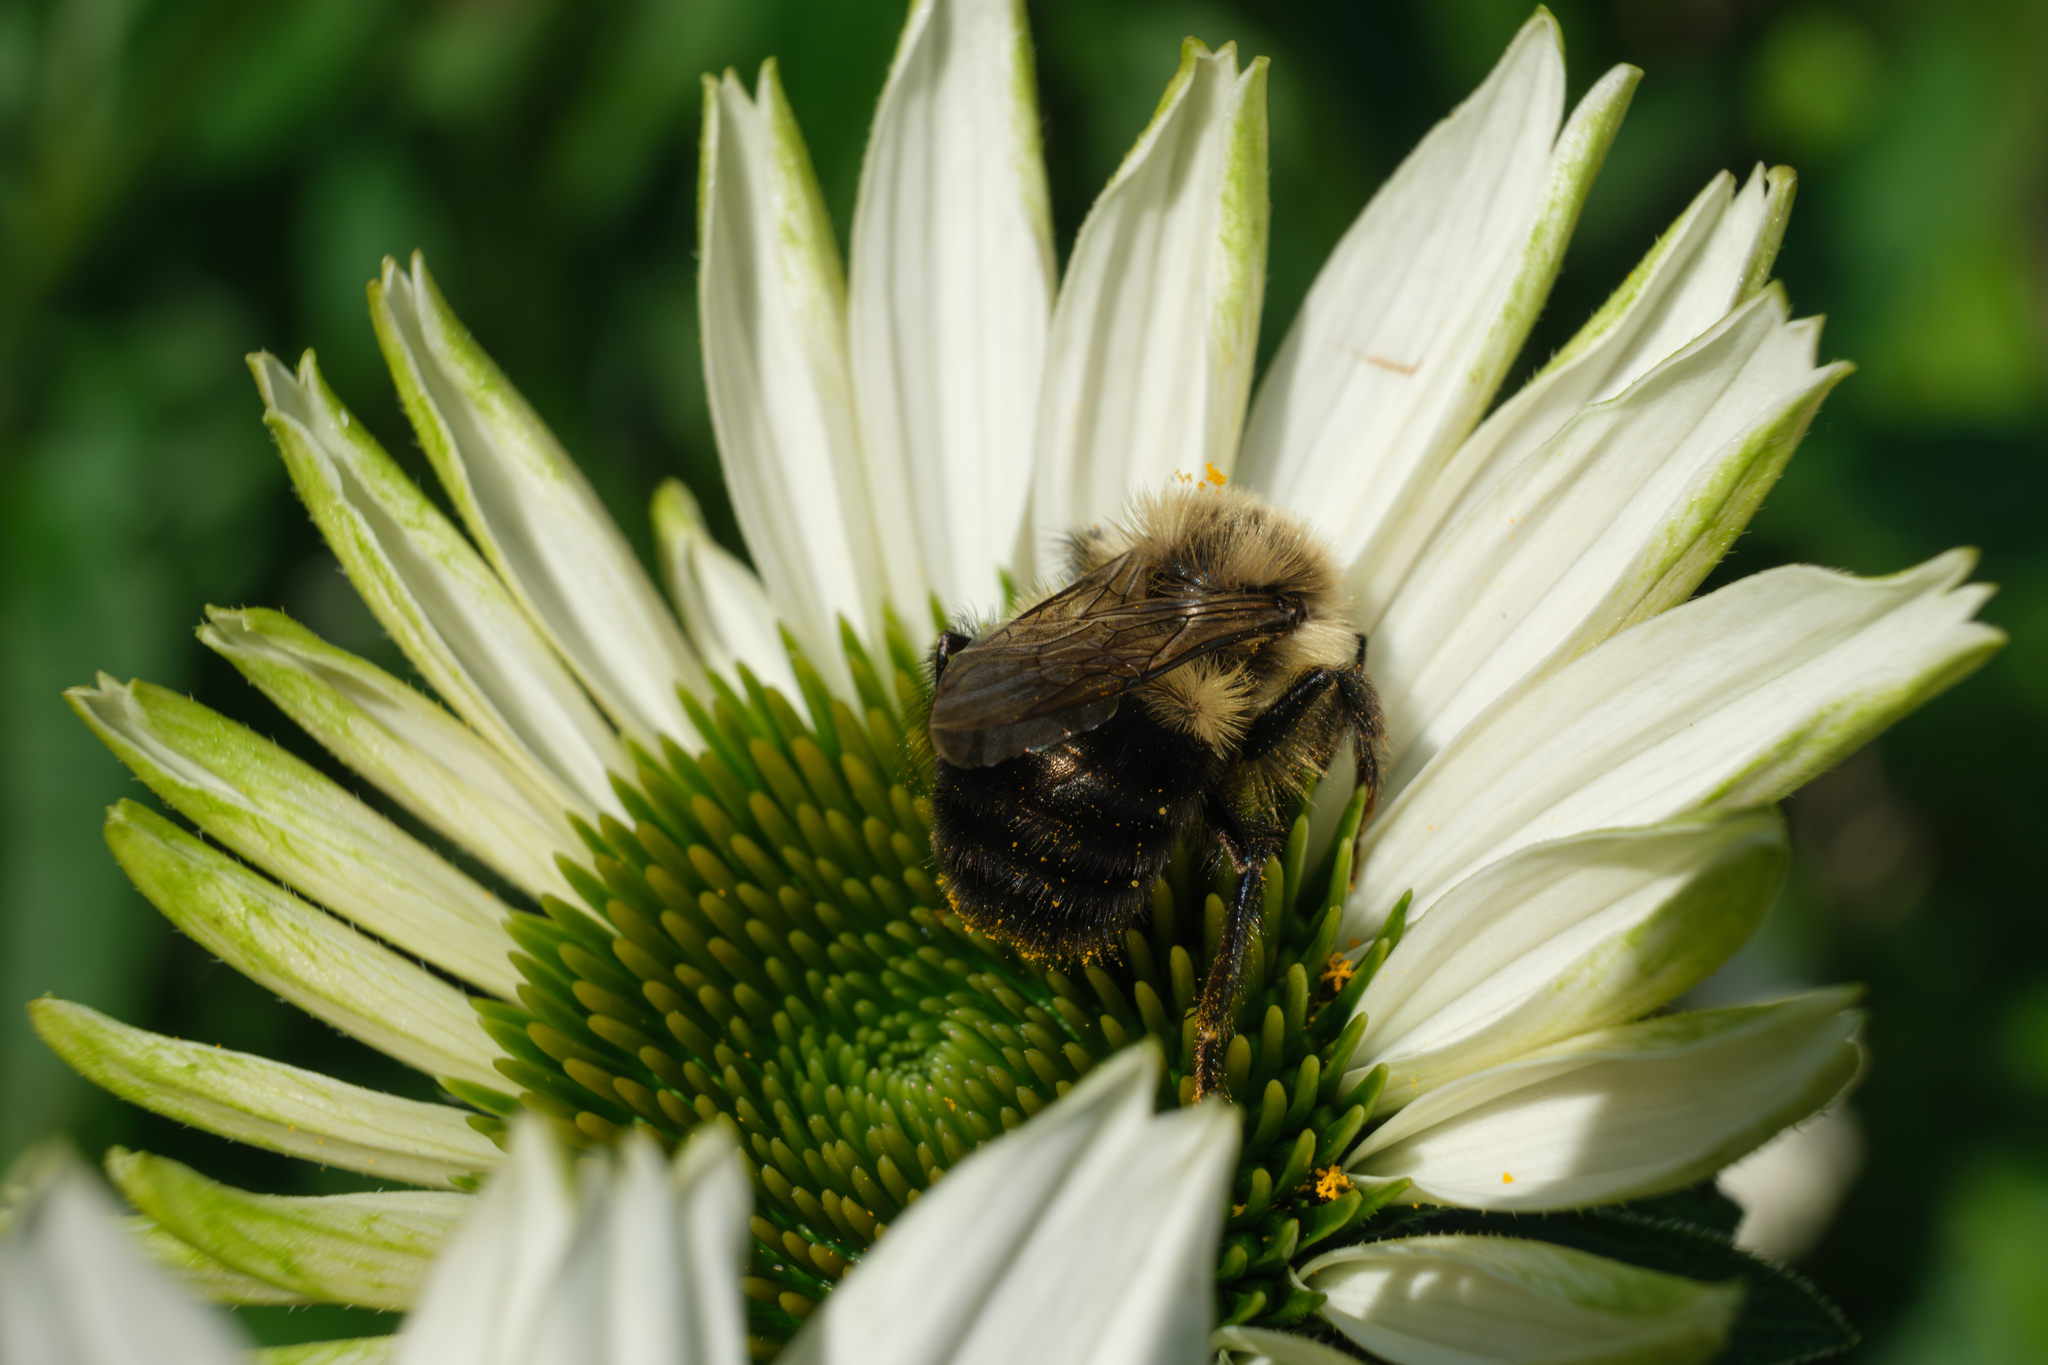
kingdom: Animalia
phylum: Arthropoda
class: Insecta
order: Hymenoptera
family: Apidae
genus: Bombus
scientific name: Bombus impatiens
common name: Common eastern bumble bee
